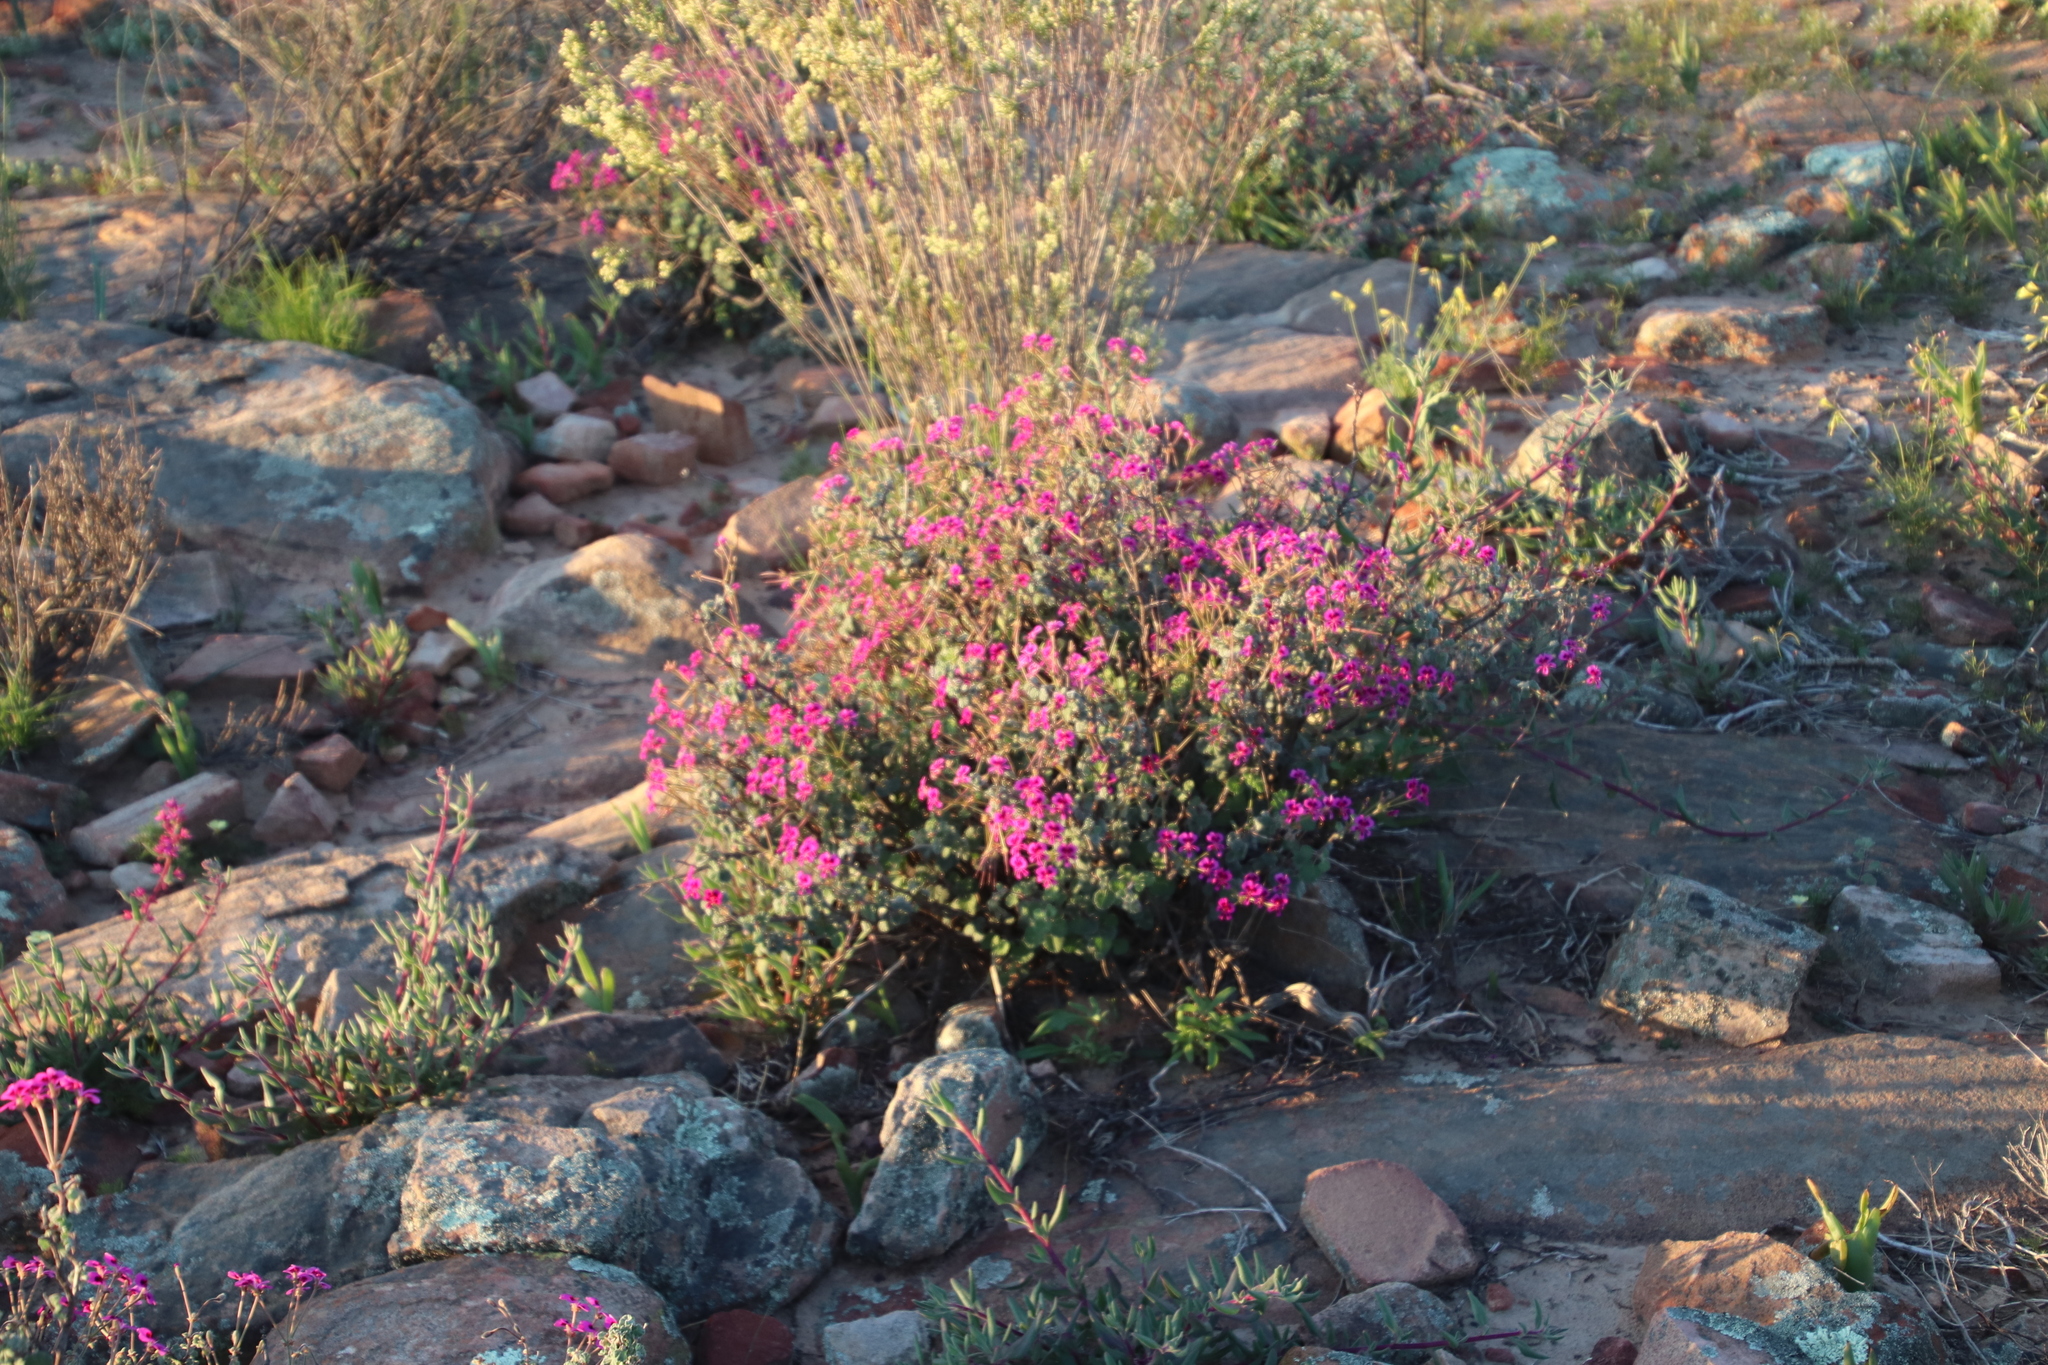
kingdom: Plantae
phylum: Tracheophyta
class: Magnoliopsida
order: Geraniales
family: Geraniaceae
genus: Pelargonium
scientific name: Pelargonium magenteum
